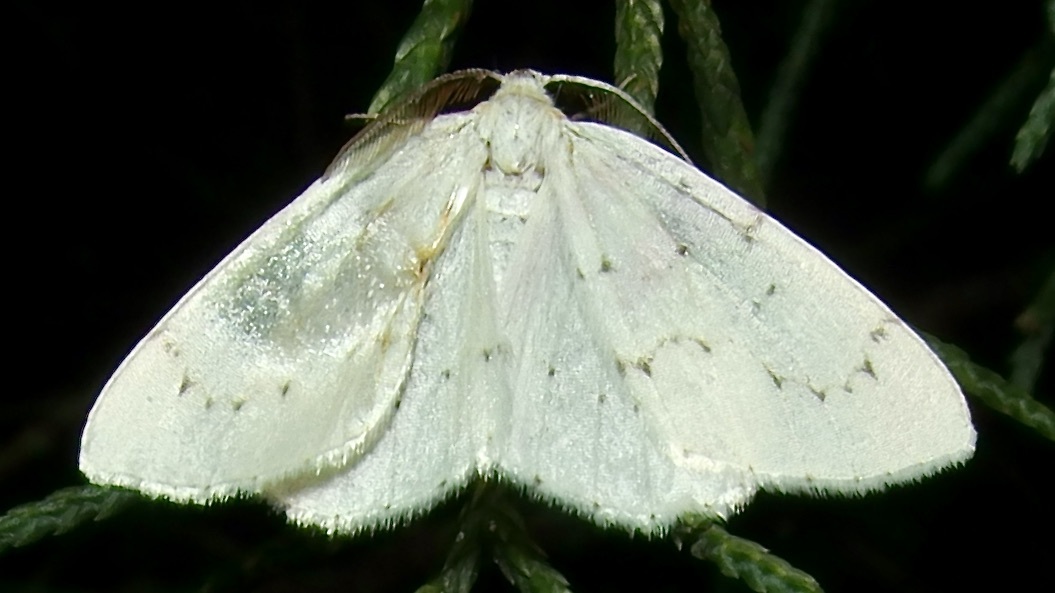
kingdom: Animalia
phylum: Arthropoda
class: Insecta
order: Lepidoptera
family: Geometridae
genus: Cingilia
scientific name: Cingilia orsona
